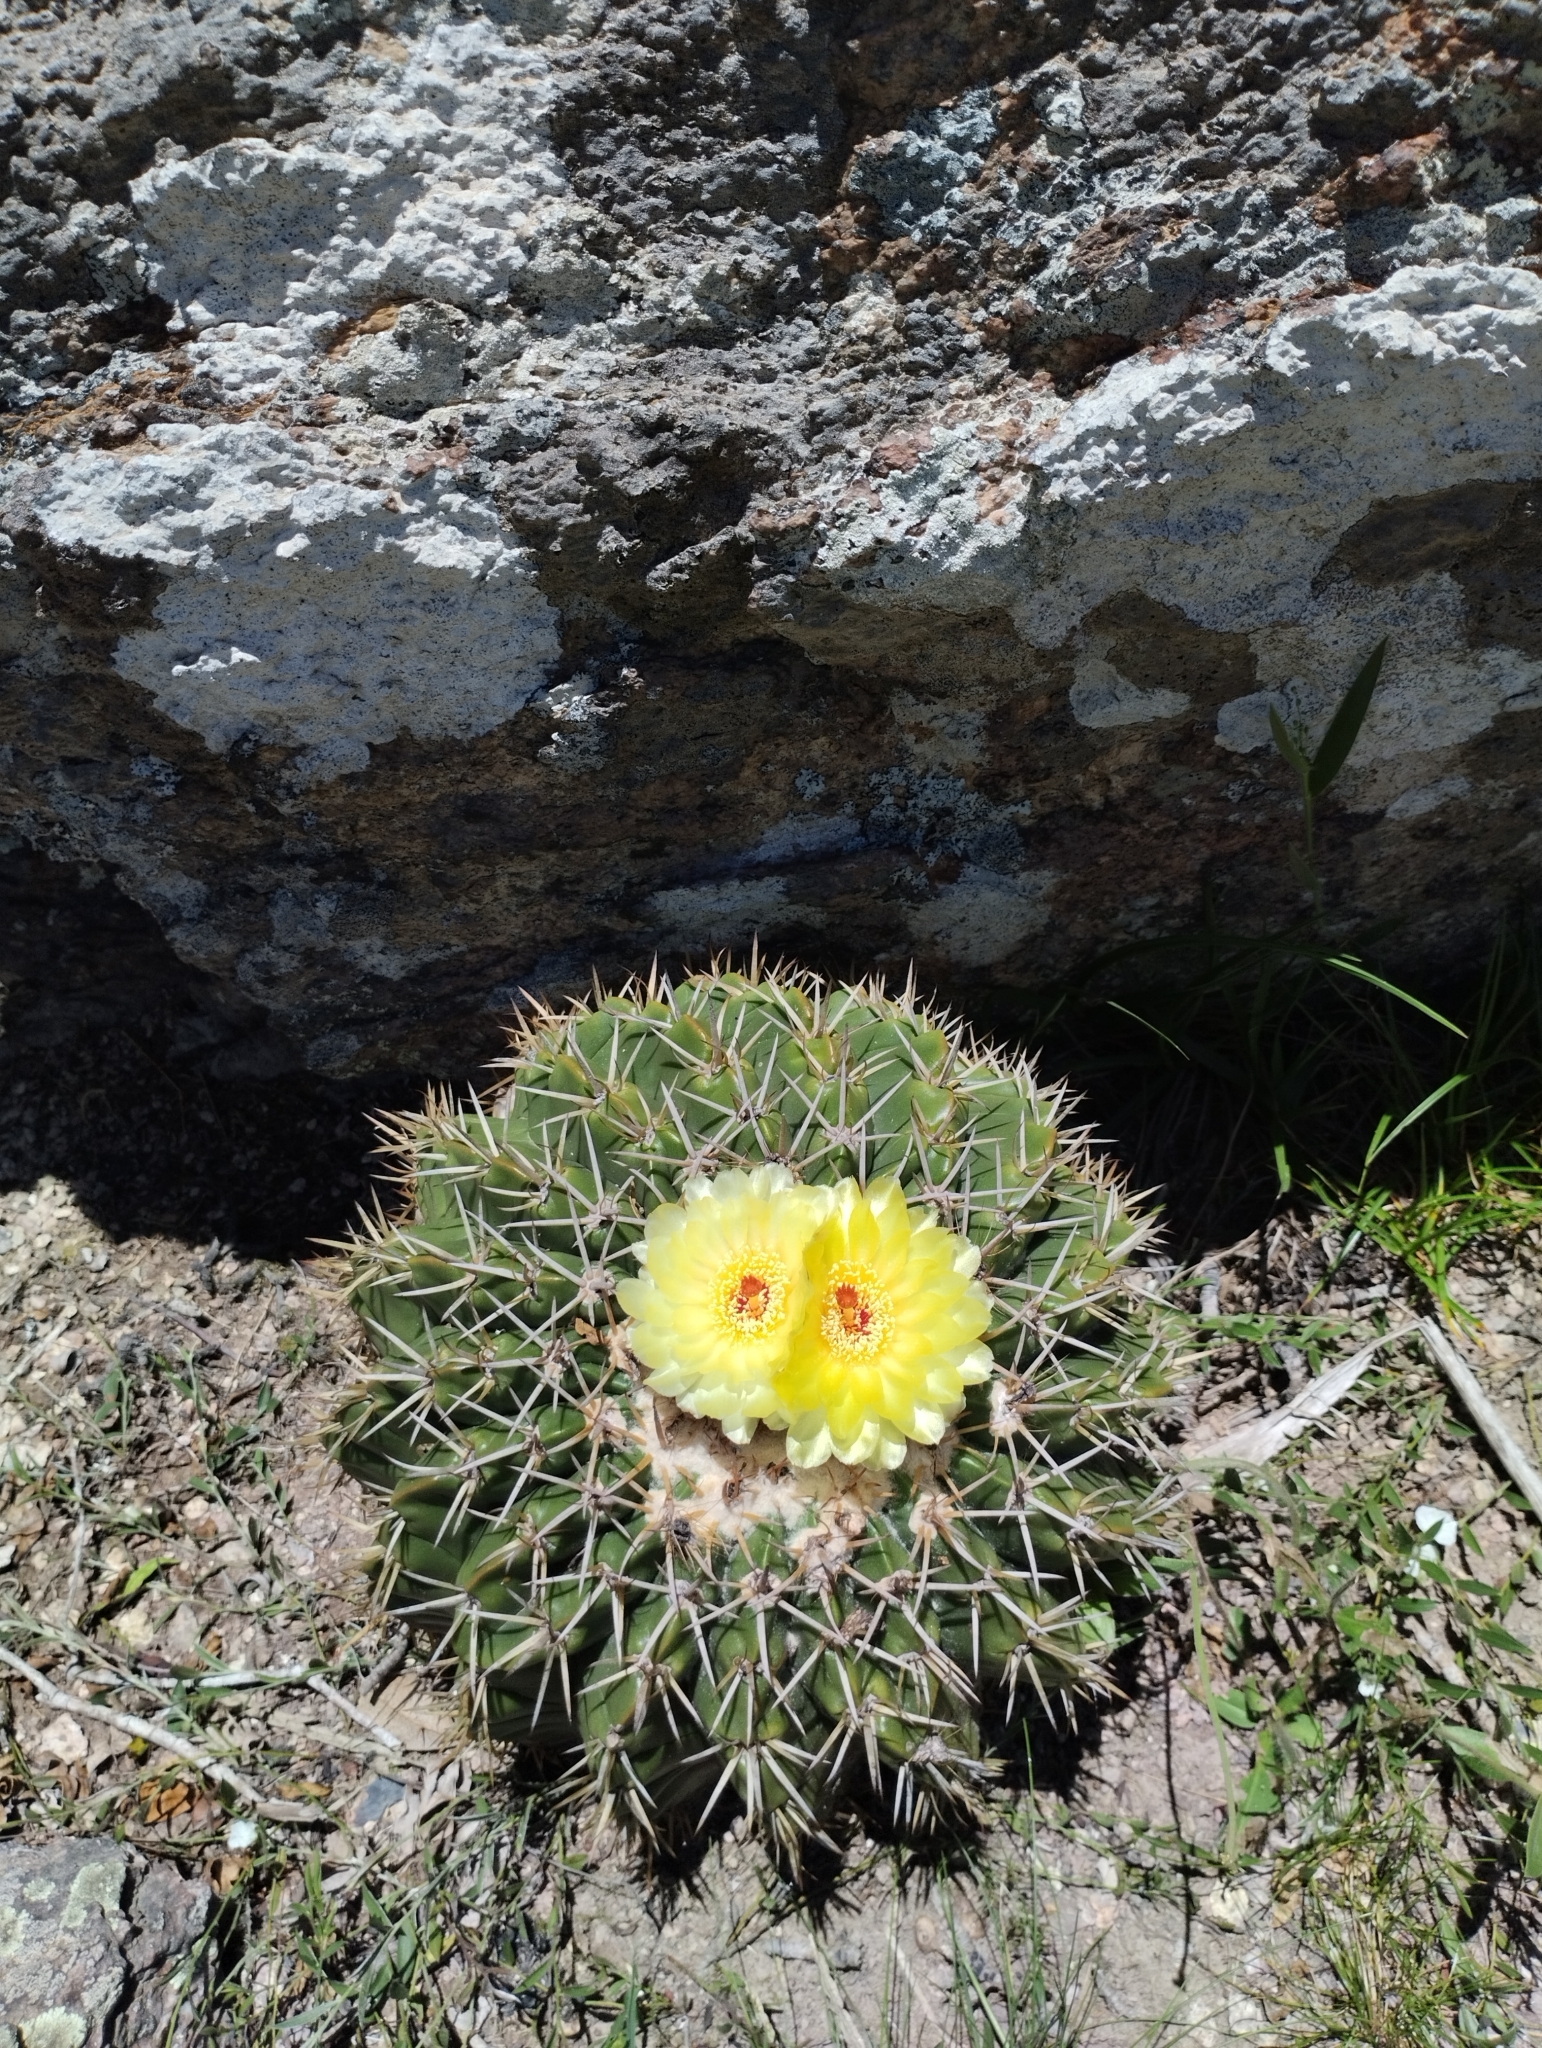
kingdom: Plantae
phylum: Tracheophyta
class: Magnoliopsida
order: Caryophyllales
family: Cactaceae
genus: Parodia
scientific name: Parodia erinacea
